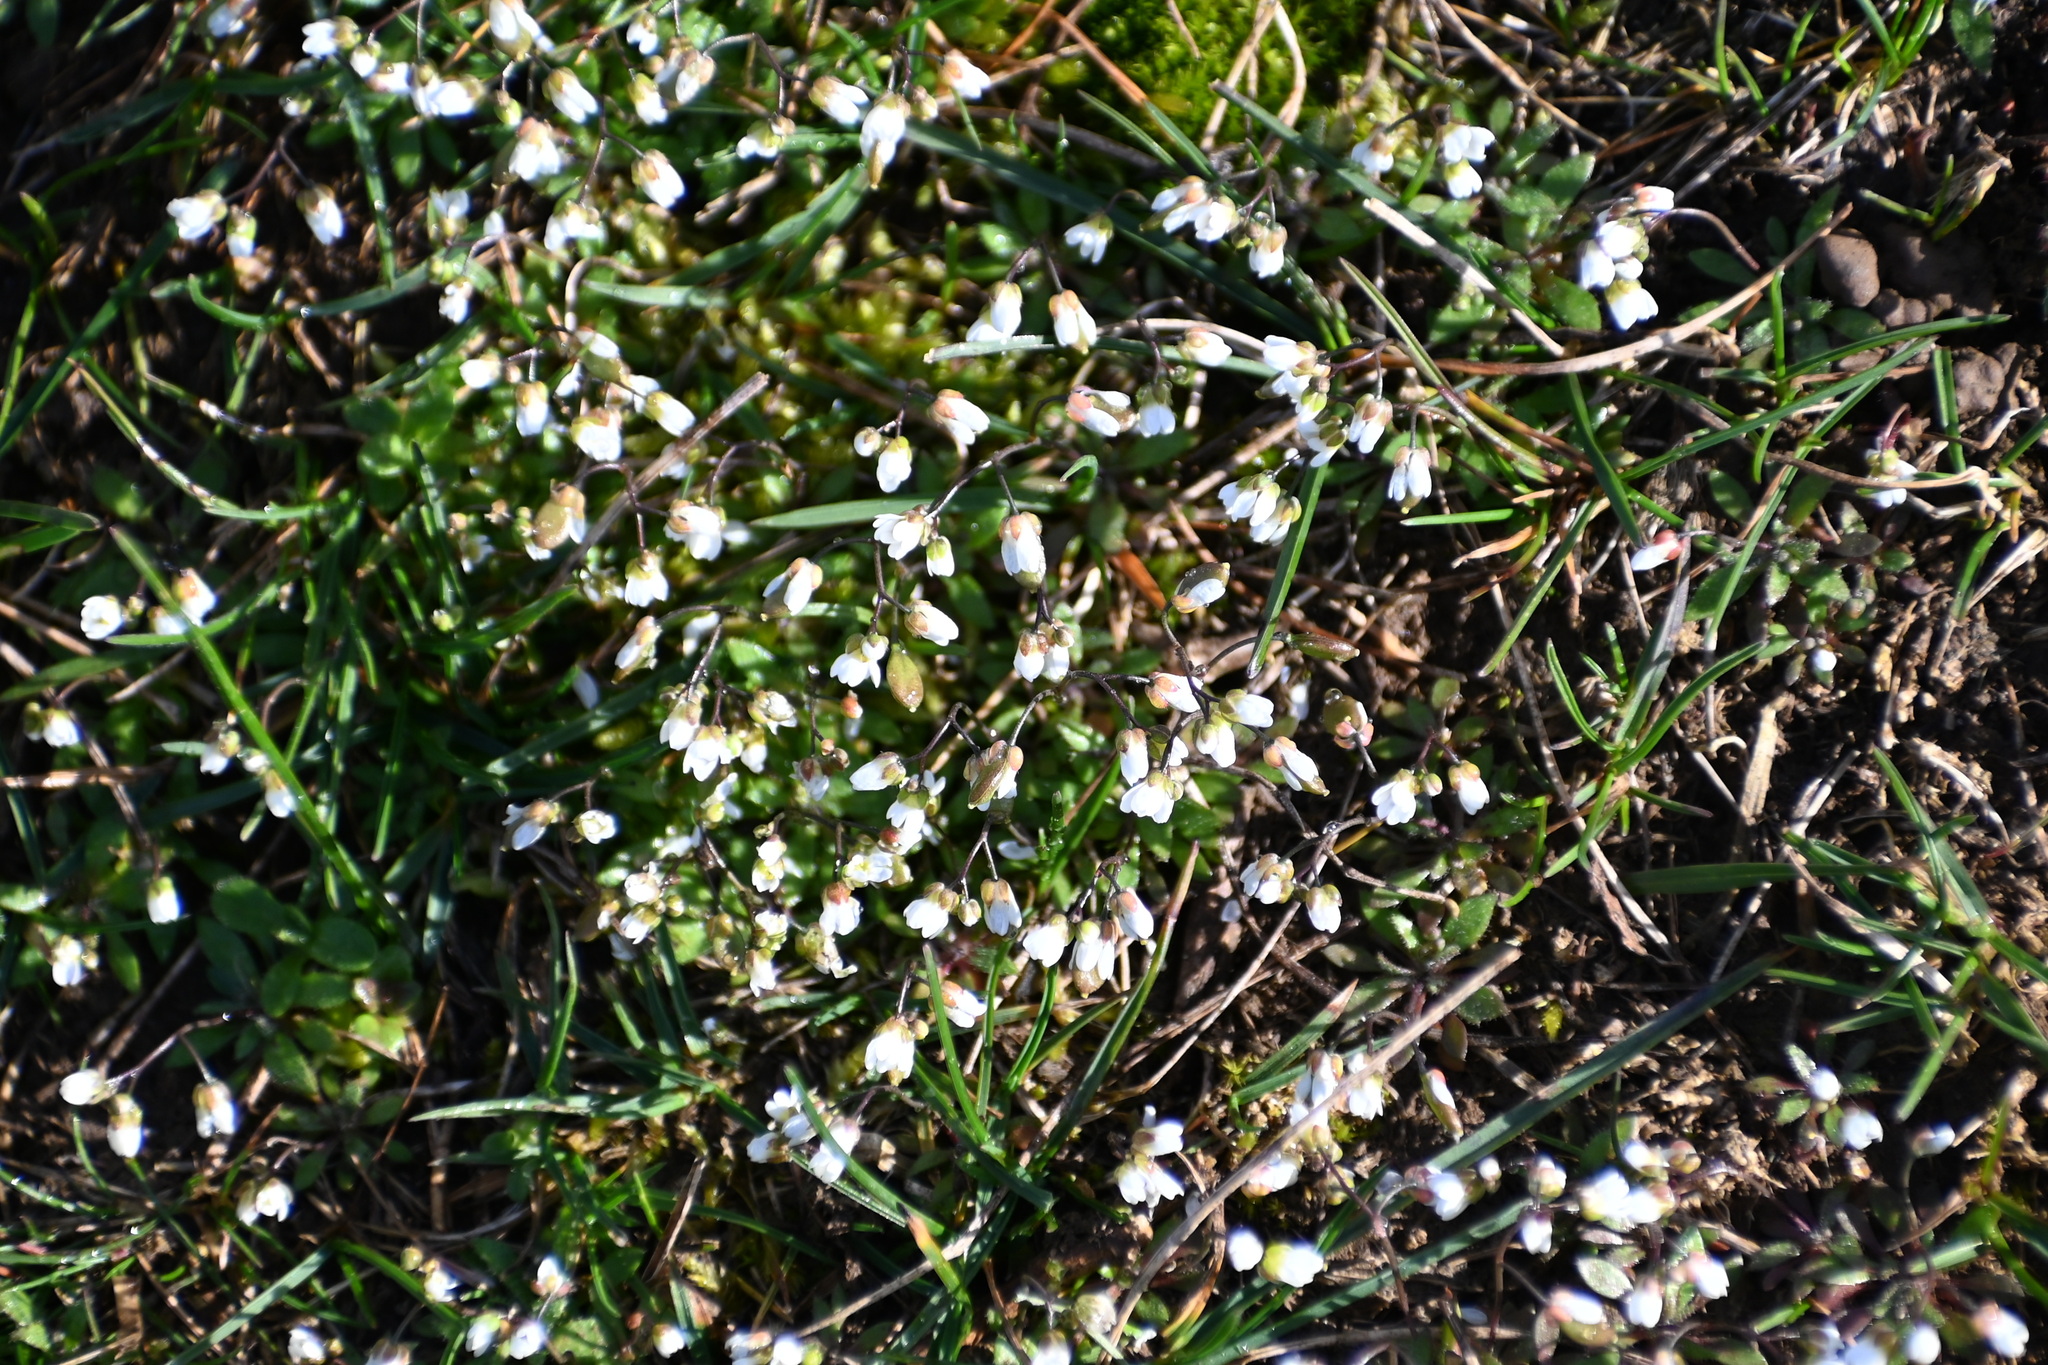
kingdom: Plantae
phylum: Tracheophyta
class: Magnoliopsida
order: Brassicales
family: Brassicaceae
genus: Draba
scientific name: Draba verna
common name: Spring draba
